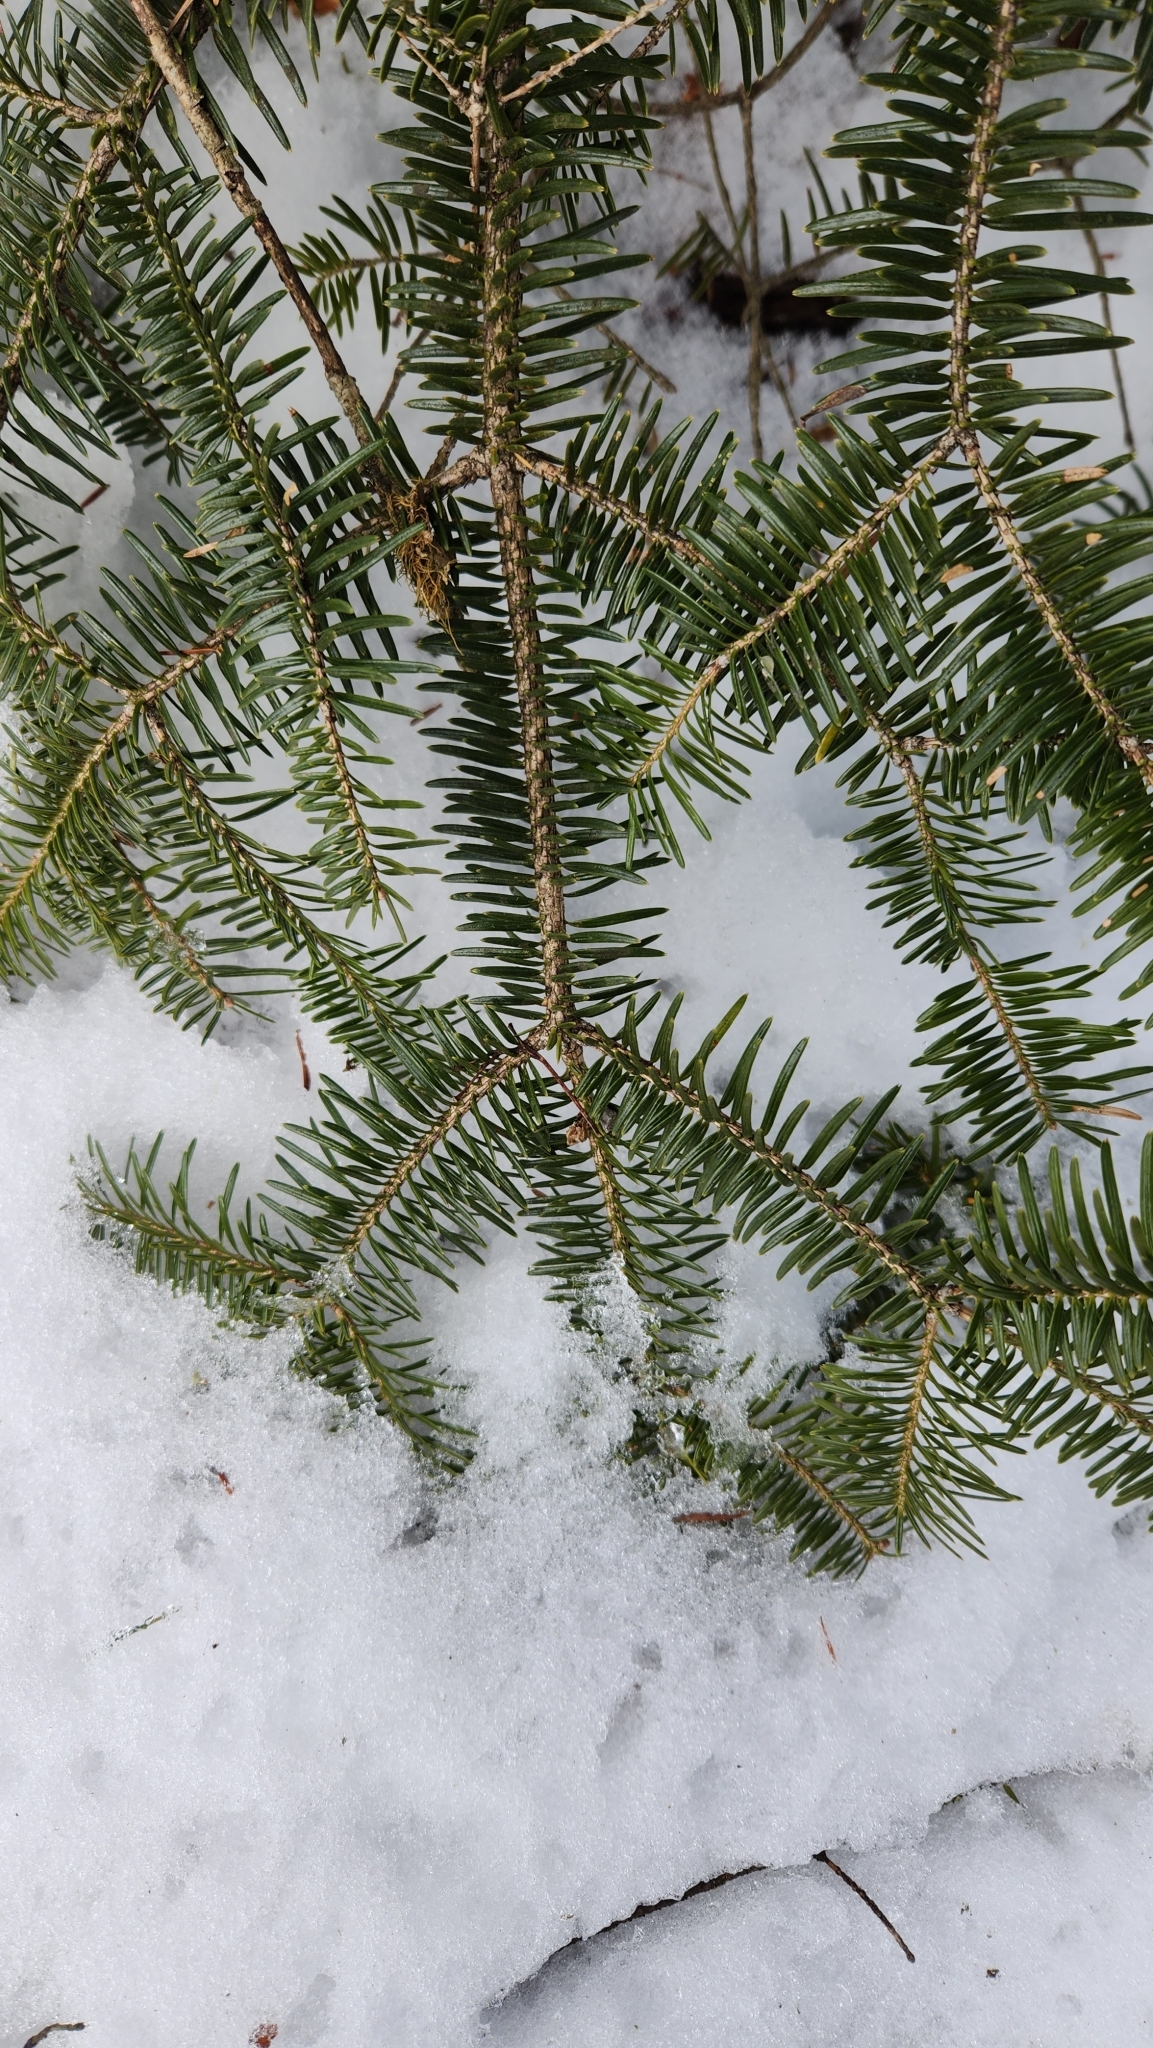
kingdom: Plantae
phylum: Tracheophyta
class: Pinopsida
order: Pinales
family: Pinaceae
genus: Abies
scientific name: Abies firma
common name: Momi fir
